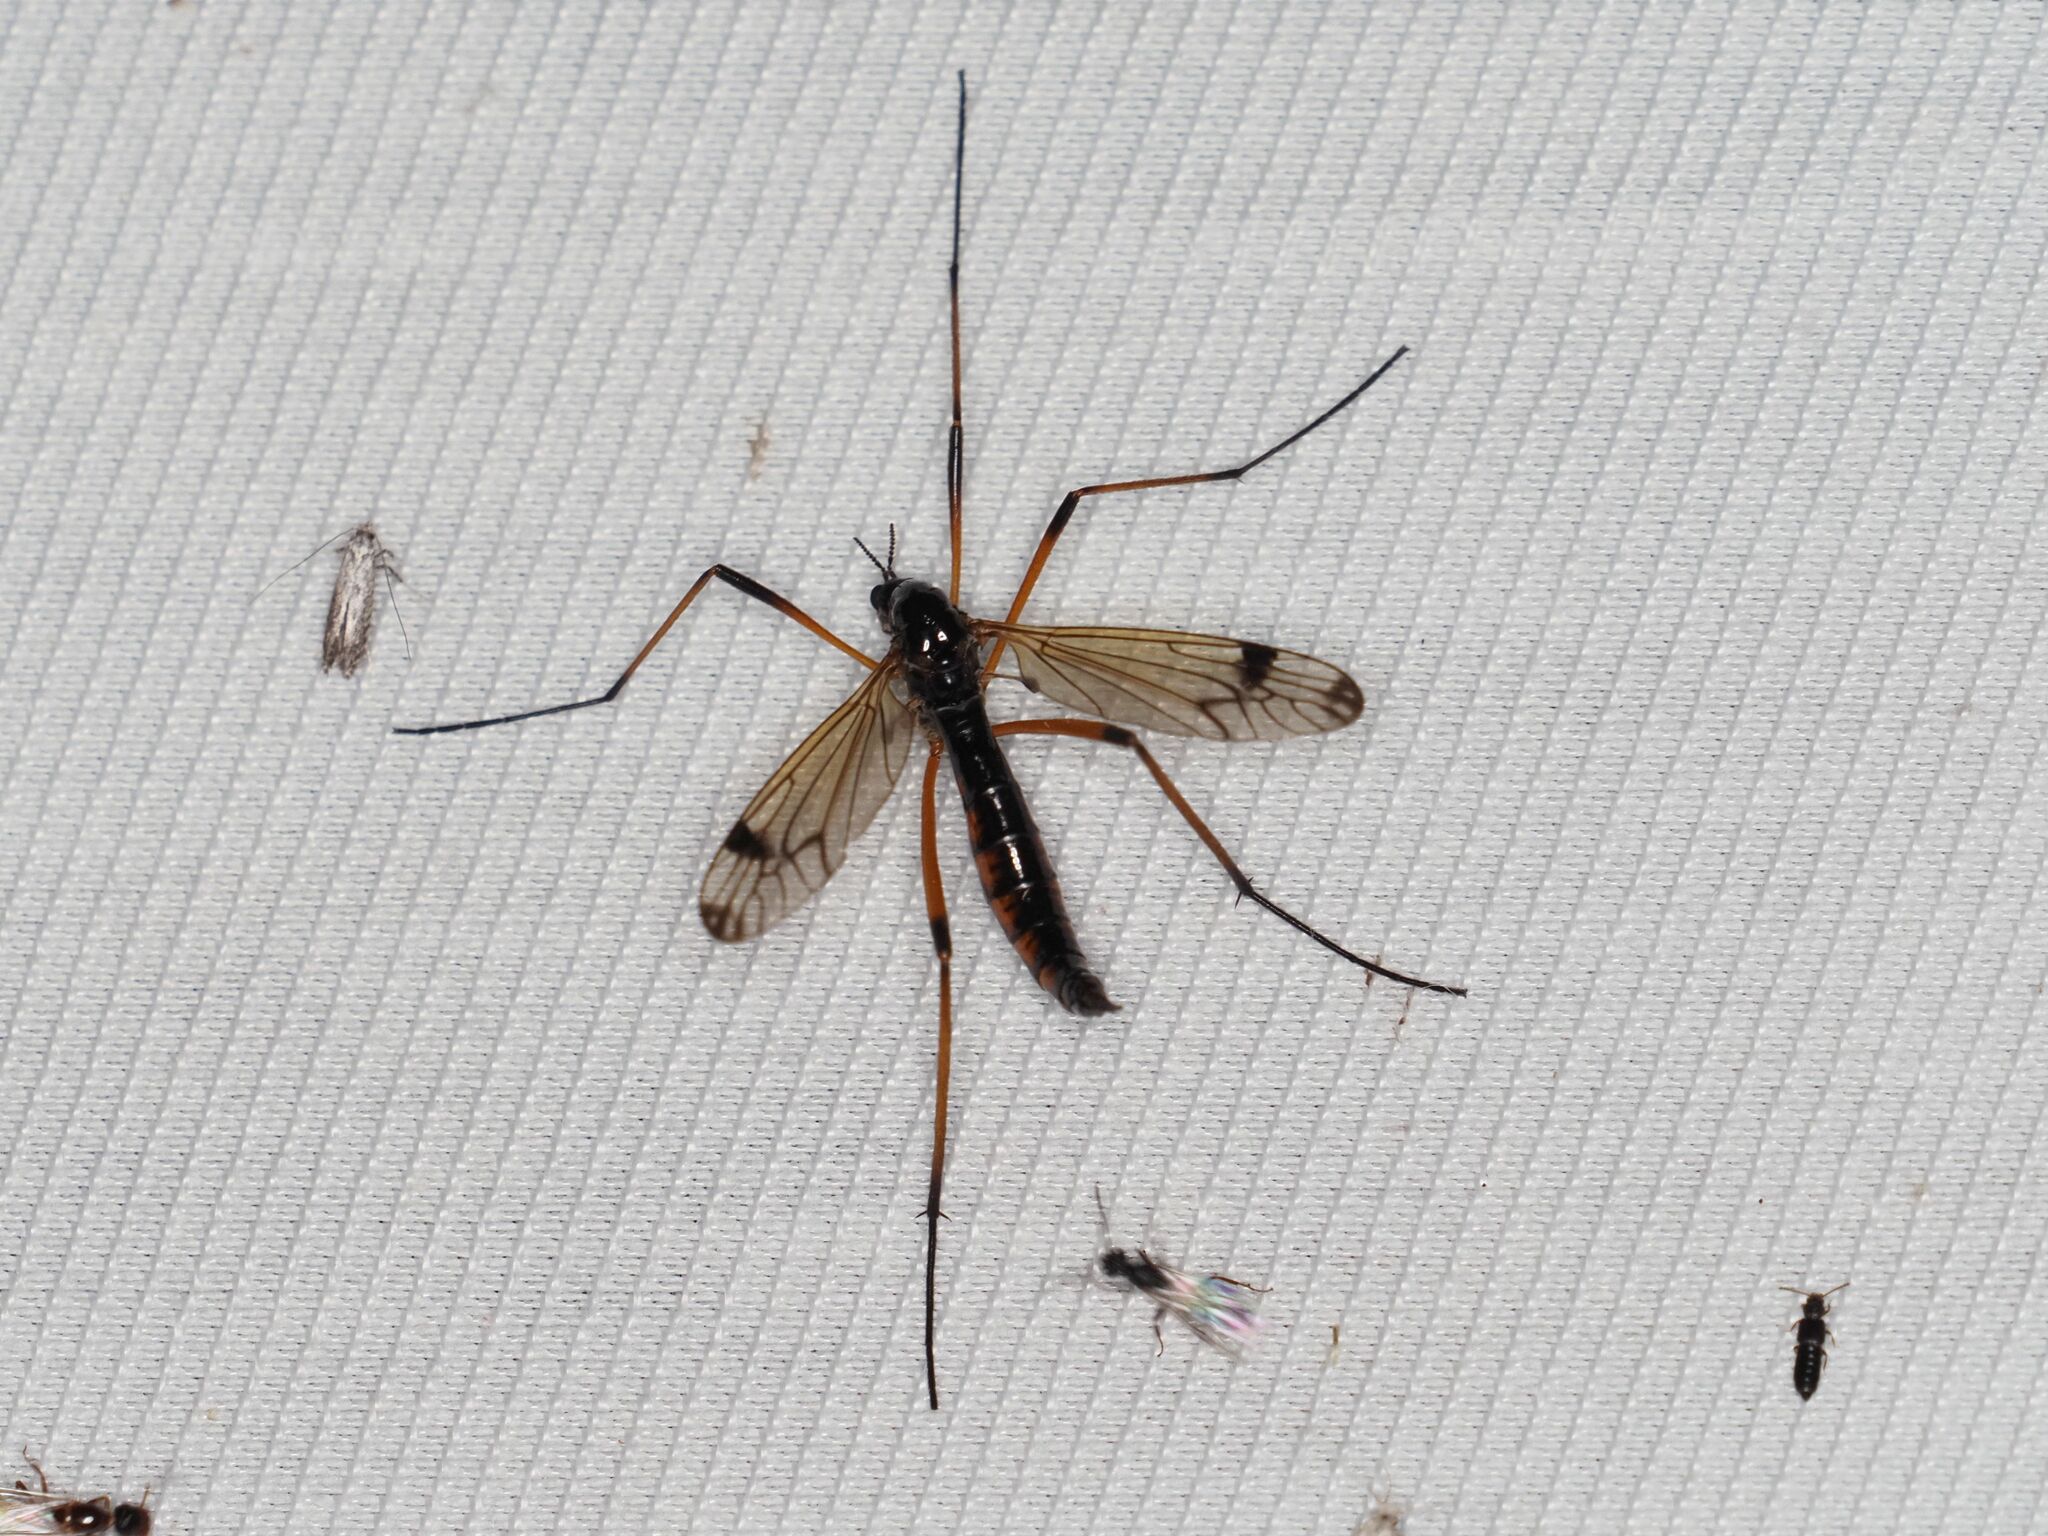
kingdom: Animalia
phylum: Arthropoda
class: Insecta
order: Diptera
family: Tipulidae
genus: Dictenidia
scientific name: Dictenidia bimaculata
